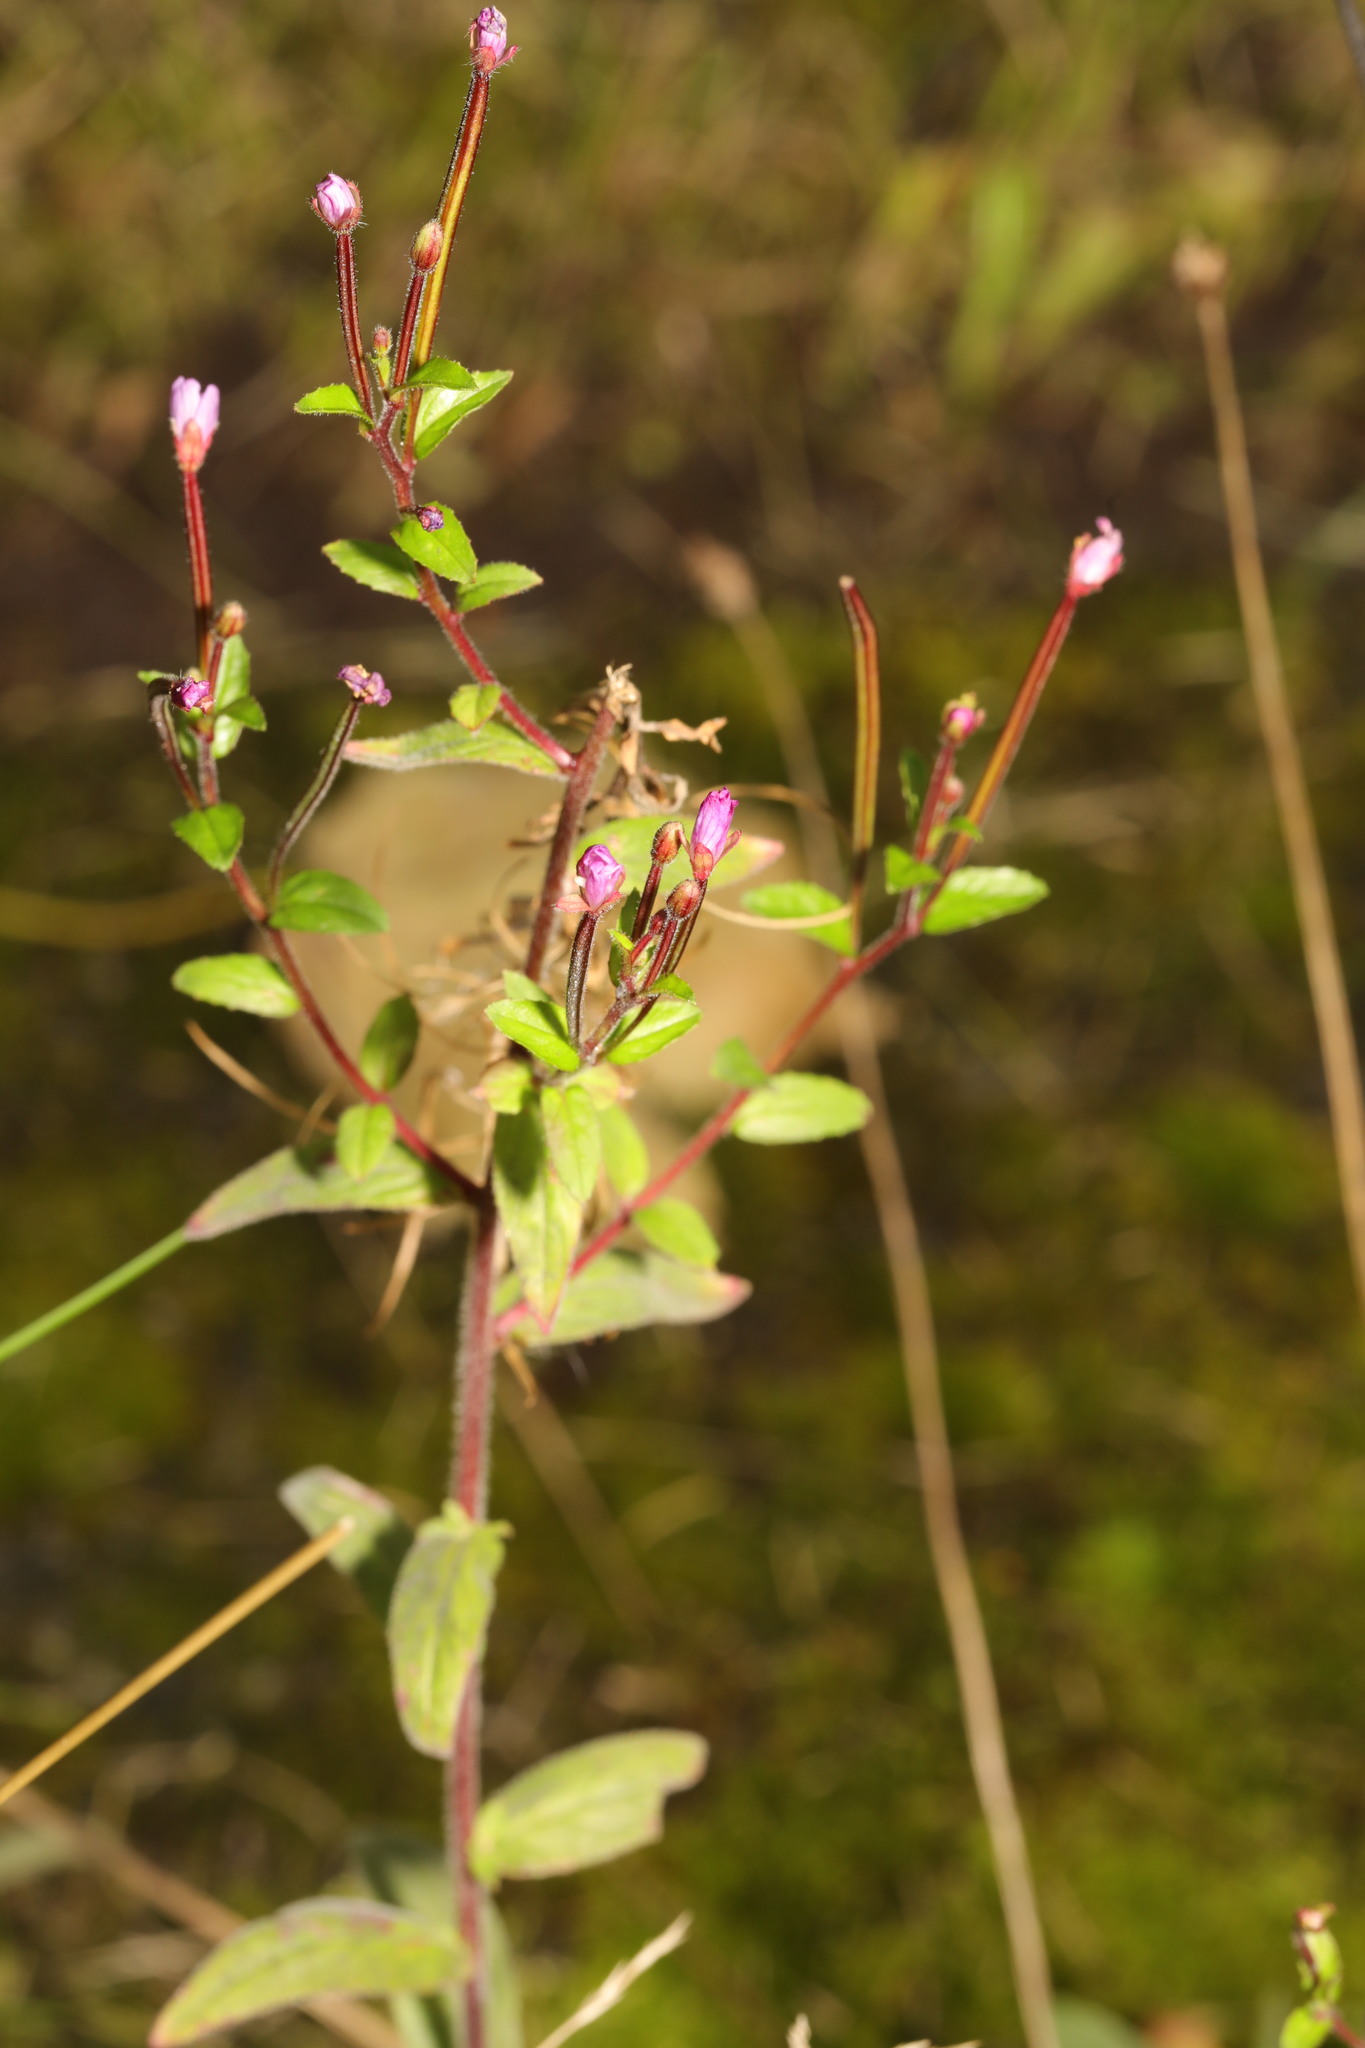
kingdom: Plantae
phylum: Tracheophyta
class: Magnoliopsida
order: Myrtales
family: Onagraceae
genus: Epilobium
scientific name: Epilobium parviflorum
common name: Hoary willowherb
